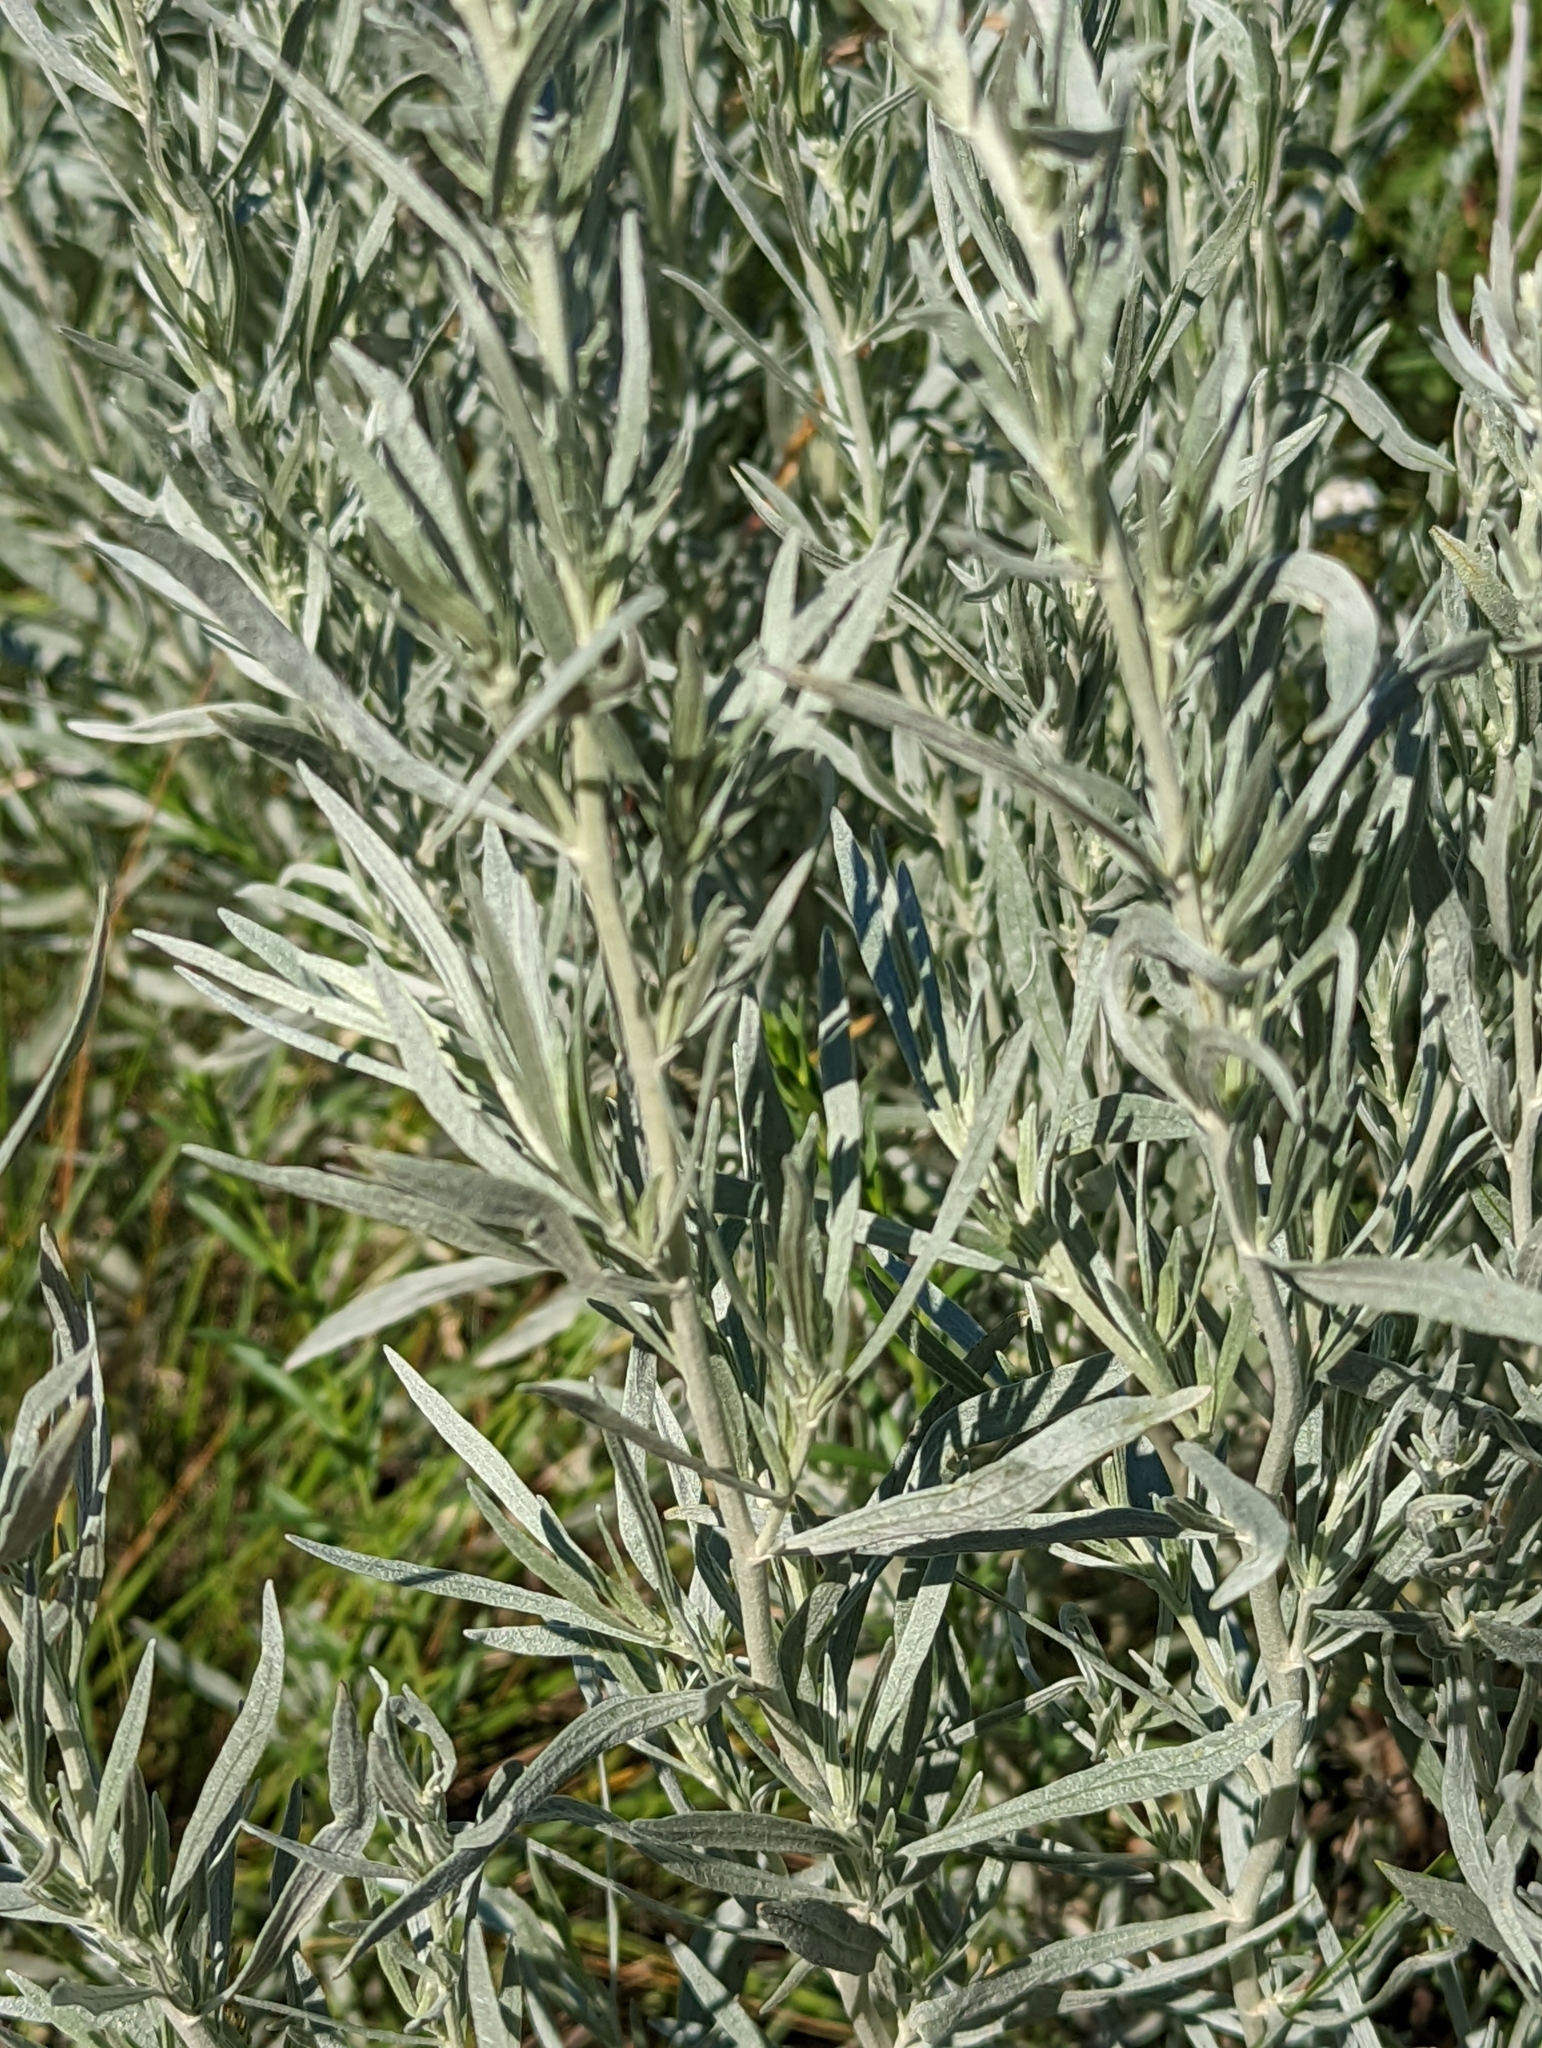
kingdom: Plantae
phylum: Tracheophyta
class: Magnoliopsida
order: Asterales
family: Asteraceae
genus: Artemisia
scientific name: Artemisia cana
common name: Silver sagebrush
